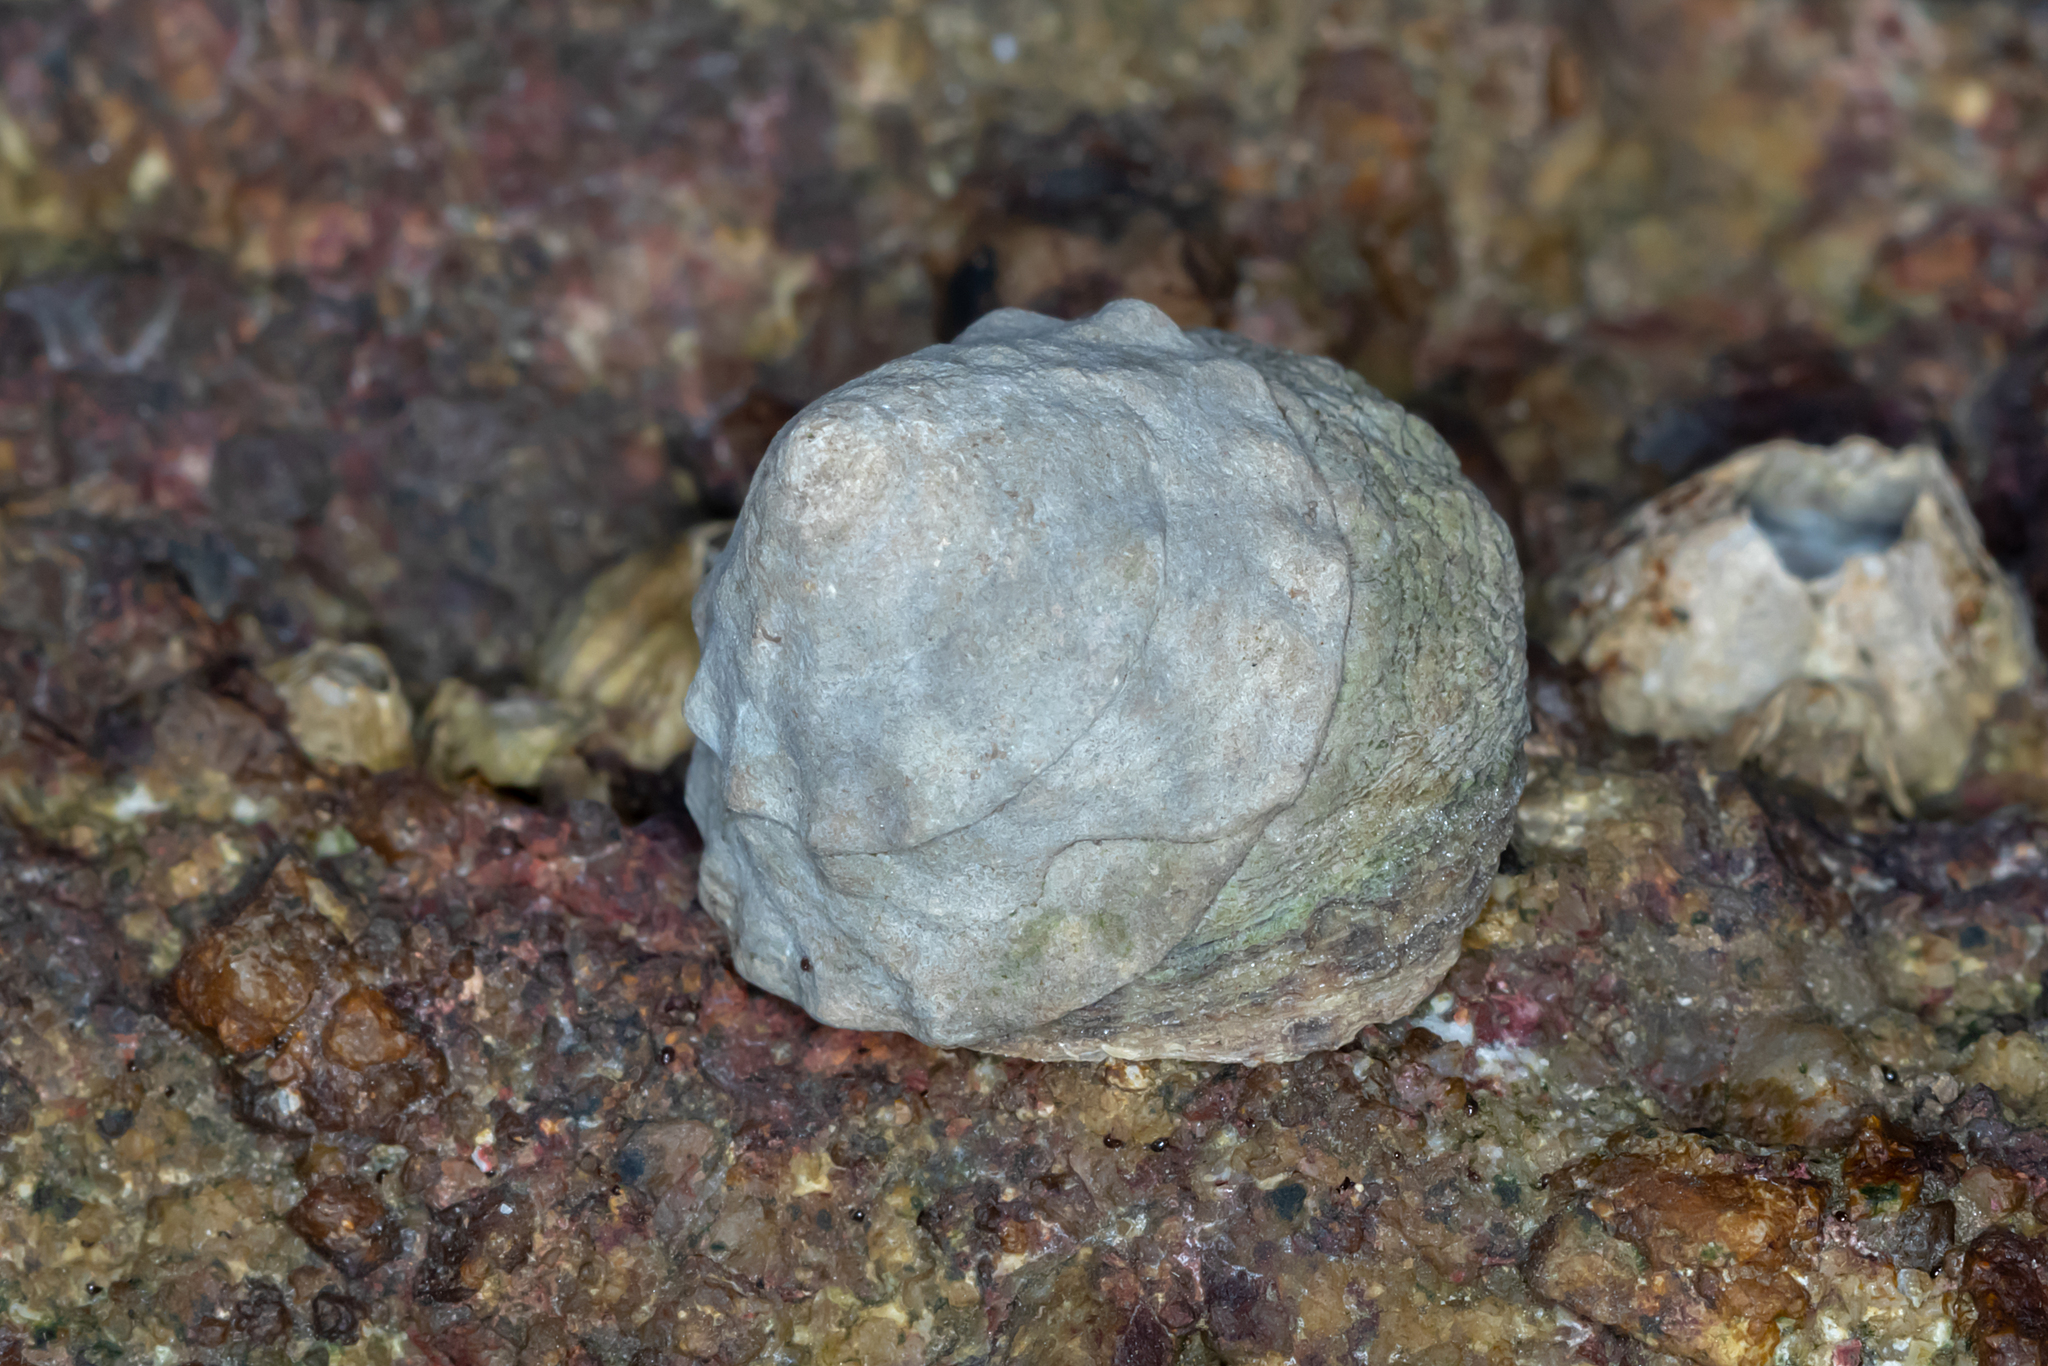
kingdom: Animalia
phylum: Mollusca
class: Gastropoda
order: Littorinimorpha
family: Littorinidae
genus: Bembicium
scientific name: Bembicium auratum
